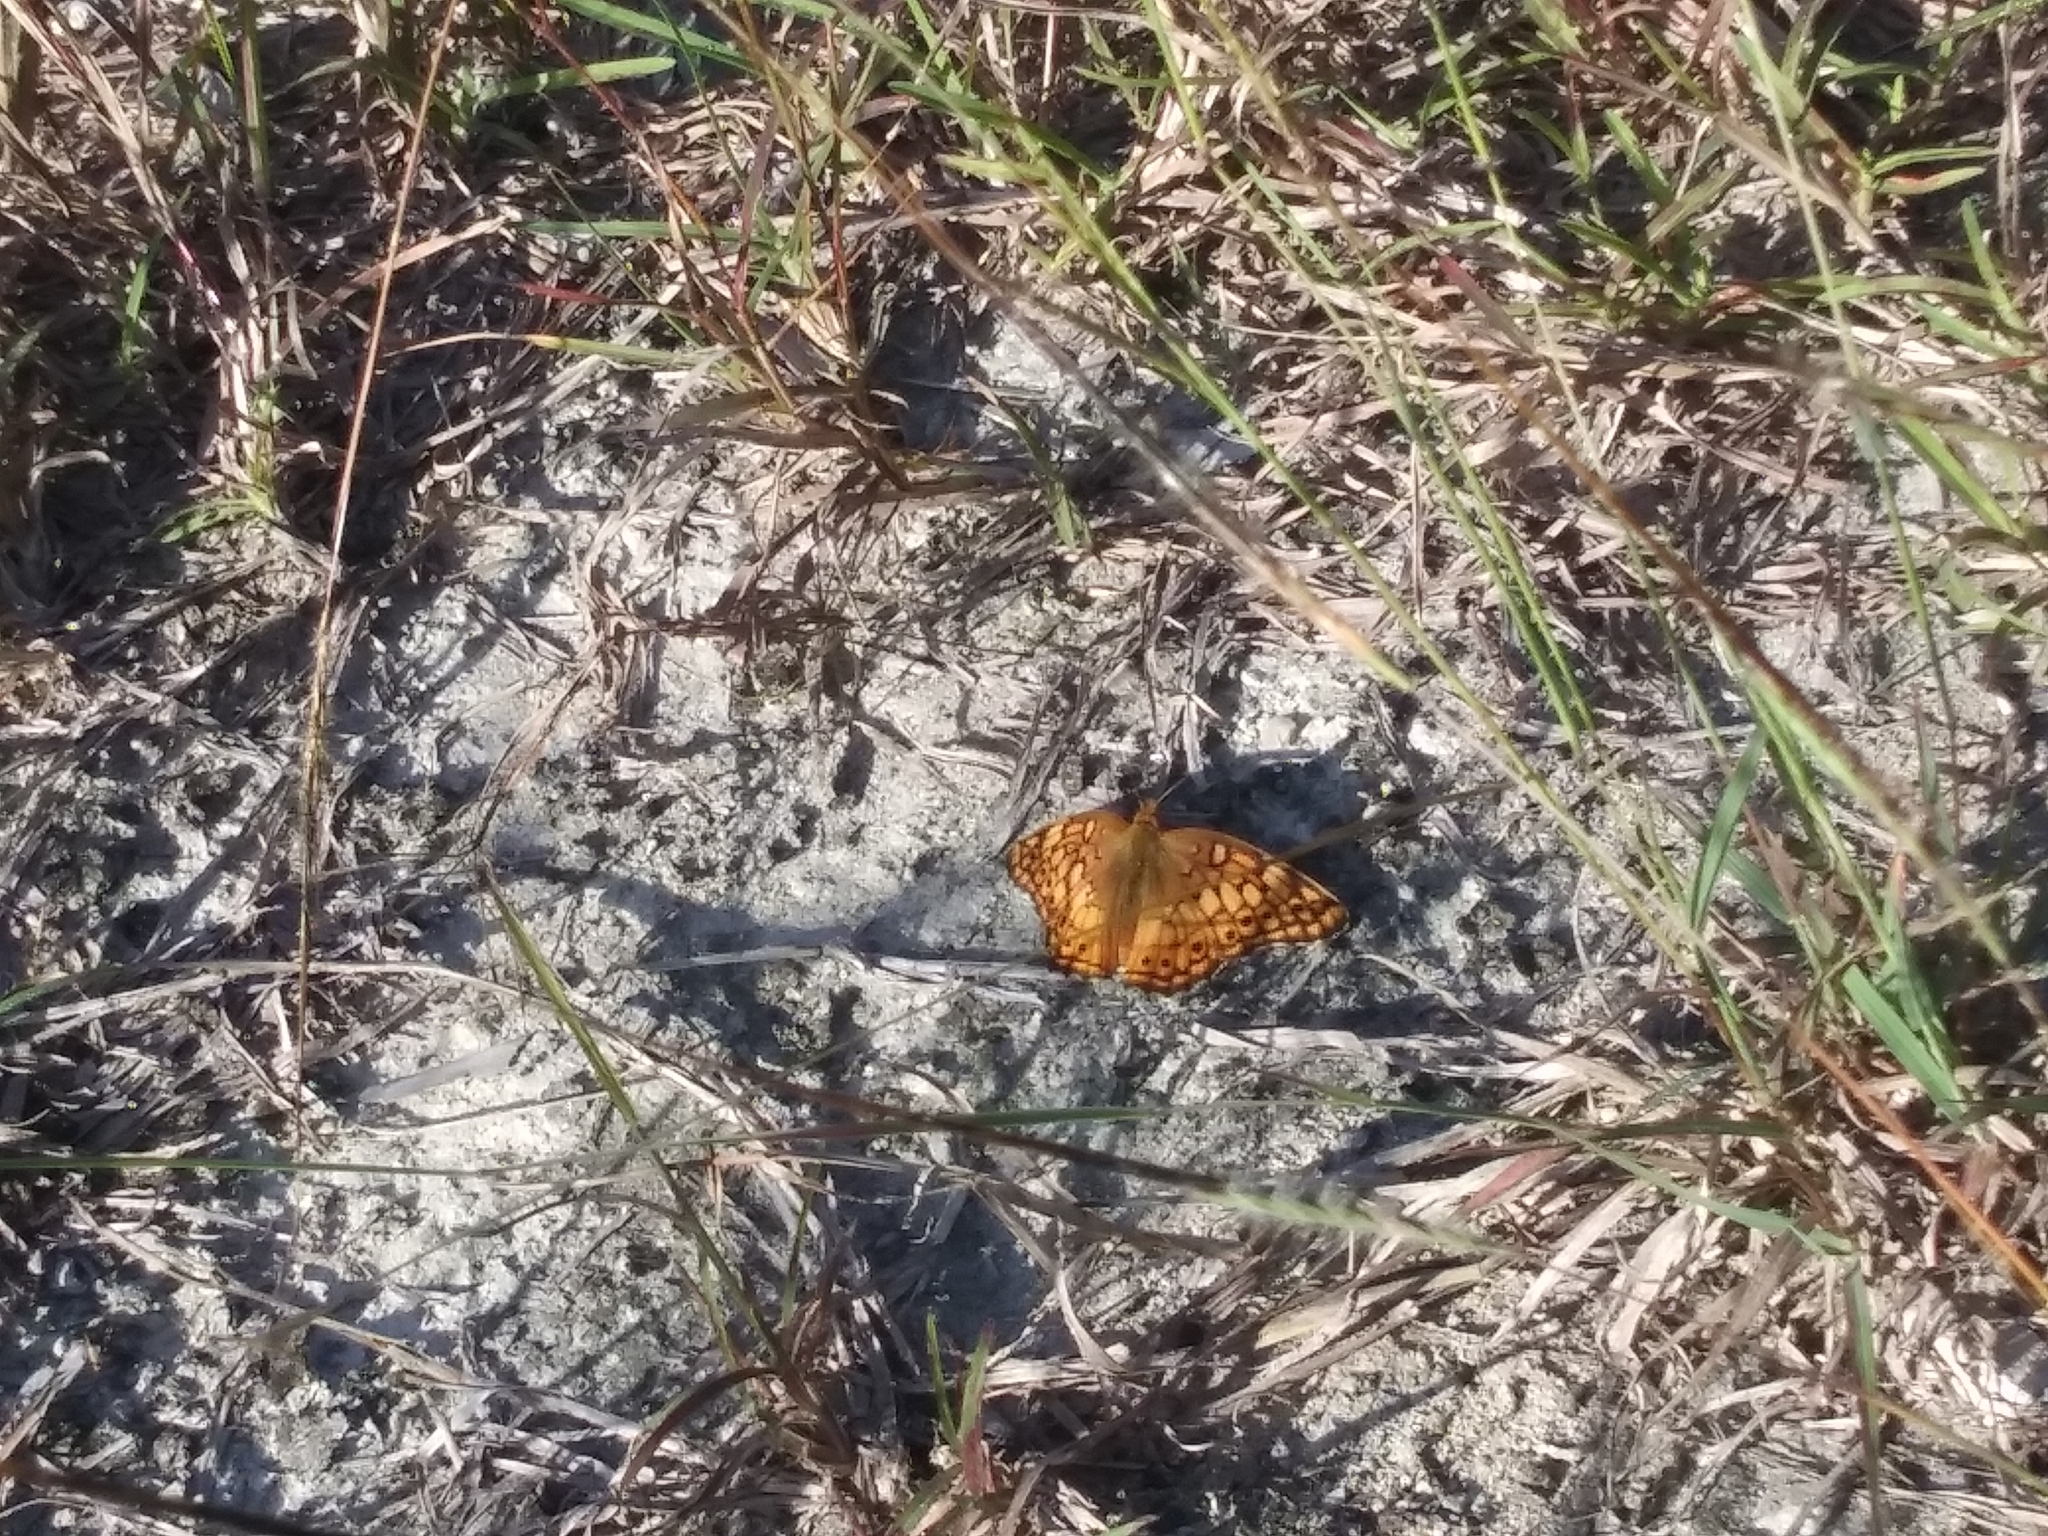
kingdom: Animalia
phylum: Arthropoda
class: Insecta
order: Lepidoptera
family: Nymphalidae
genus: Euptoieta
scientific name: Euptoieta claudia
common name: Variegated fritillary
